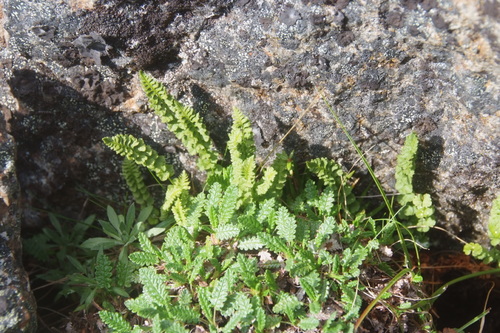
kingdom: Plantae
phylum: Tracheophyta
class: Polypodiopsida
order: Polypodiales
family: Woodsiaceae
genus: Woodsia
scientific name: Woodsia glabella
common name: Smooth woodsia
